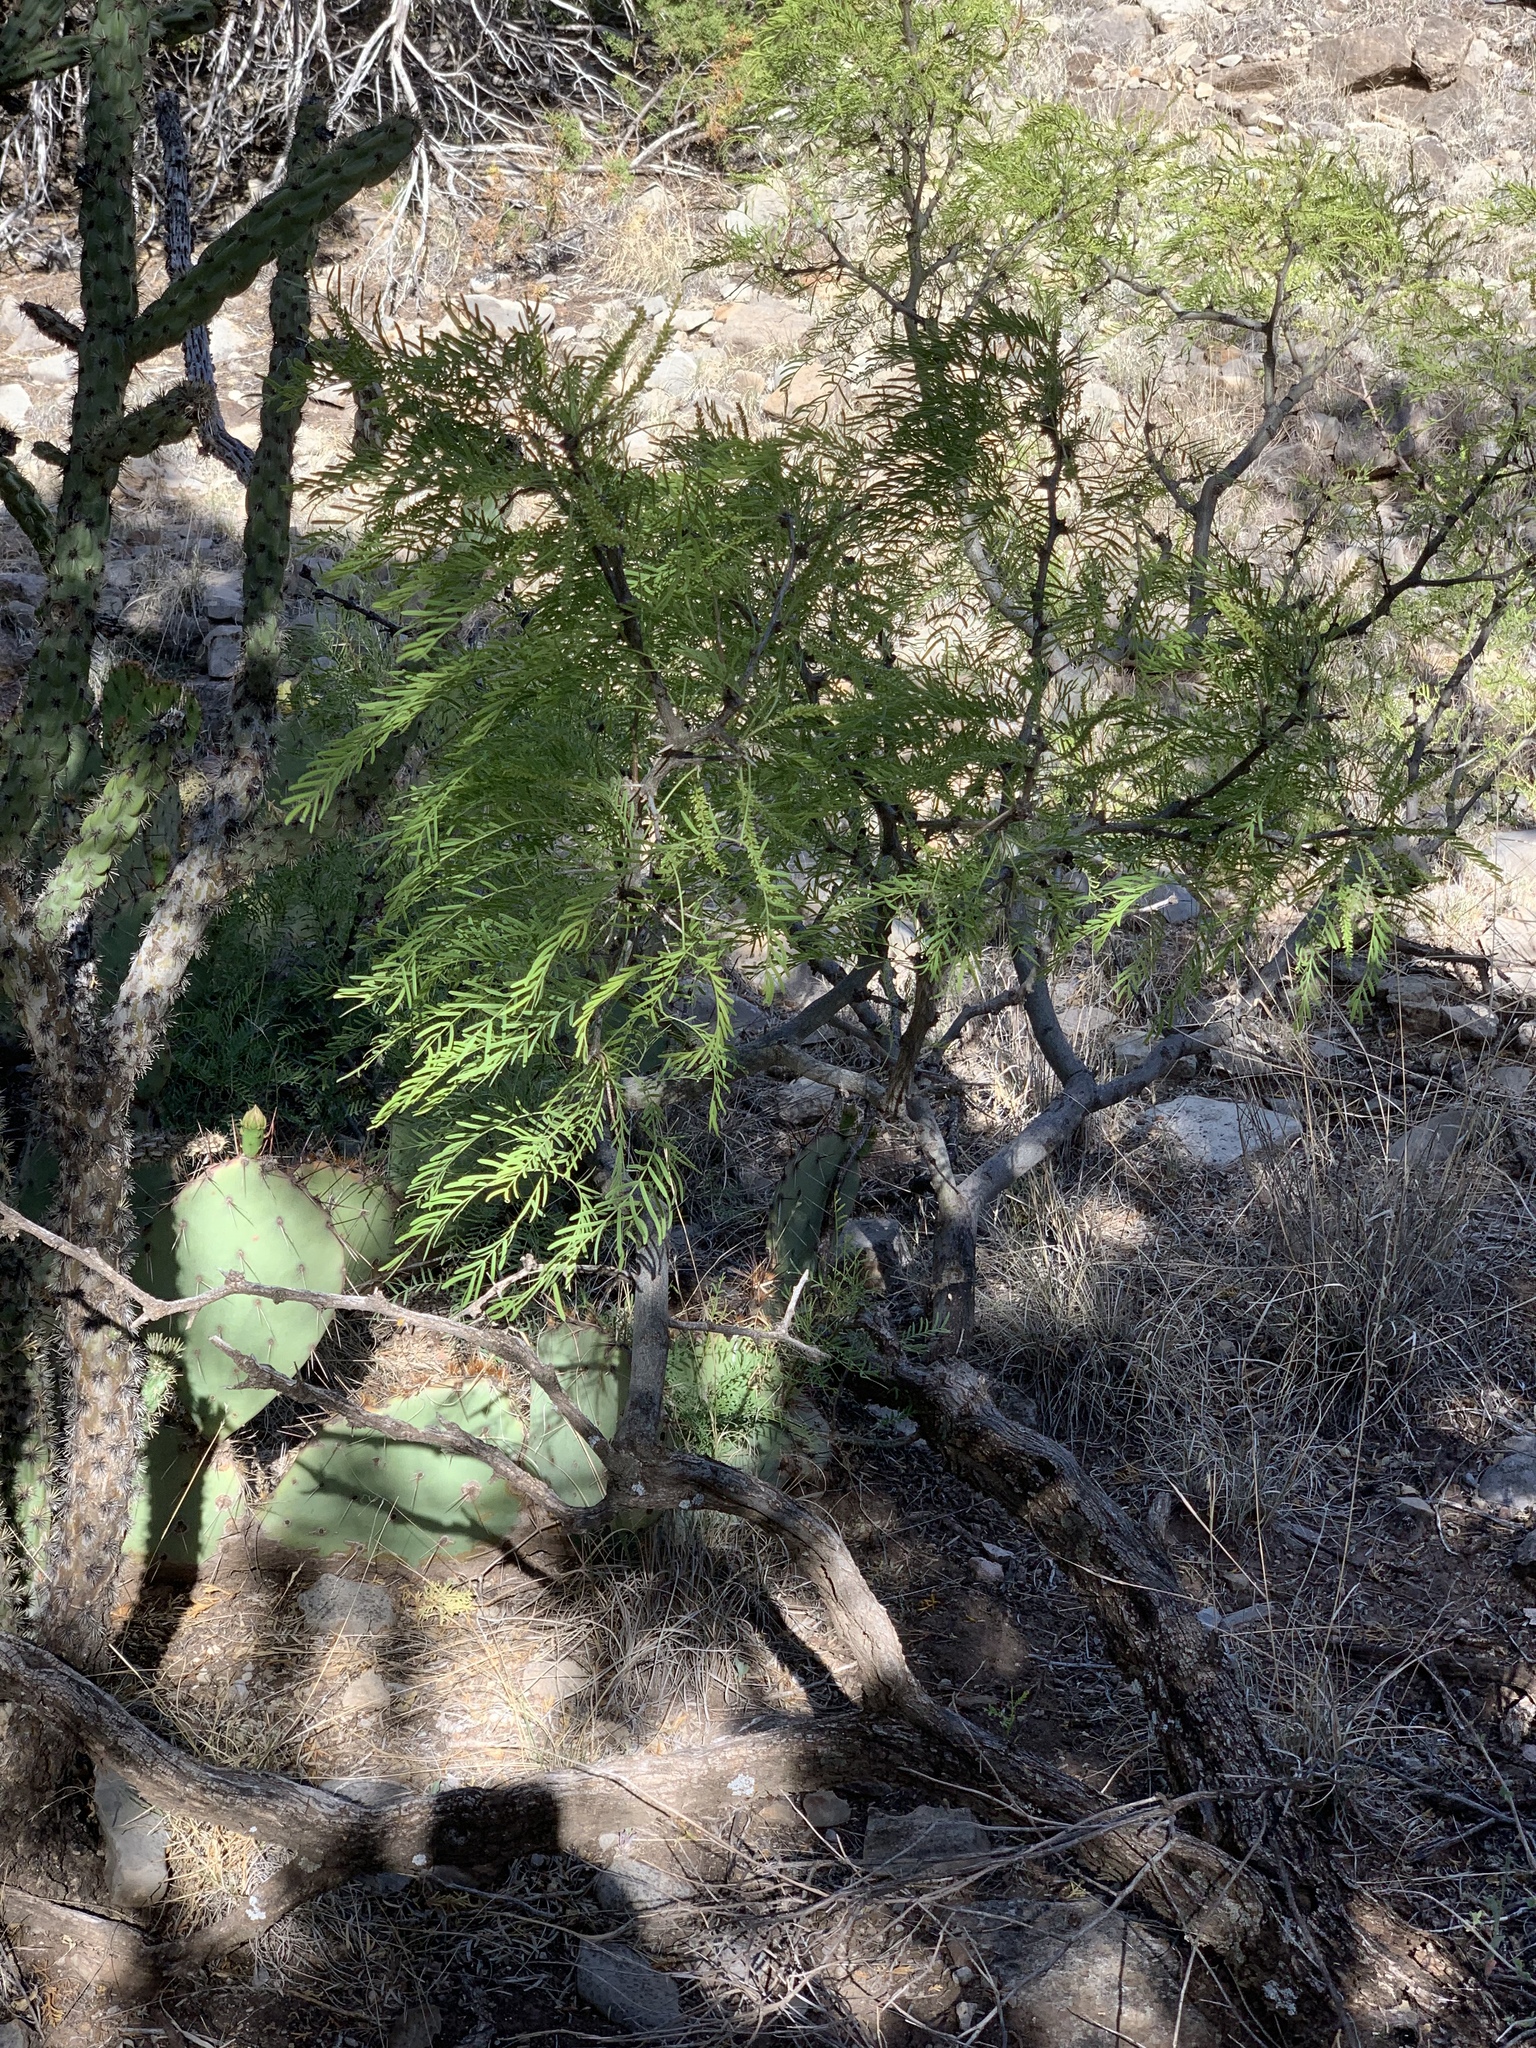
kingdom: Plantae
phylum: Tracheophyta
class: Magnoliopsida
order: Fabales
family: Fabaceae
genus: Prosopis
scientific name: Prosopis glandulosa
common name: Honey mesquite
